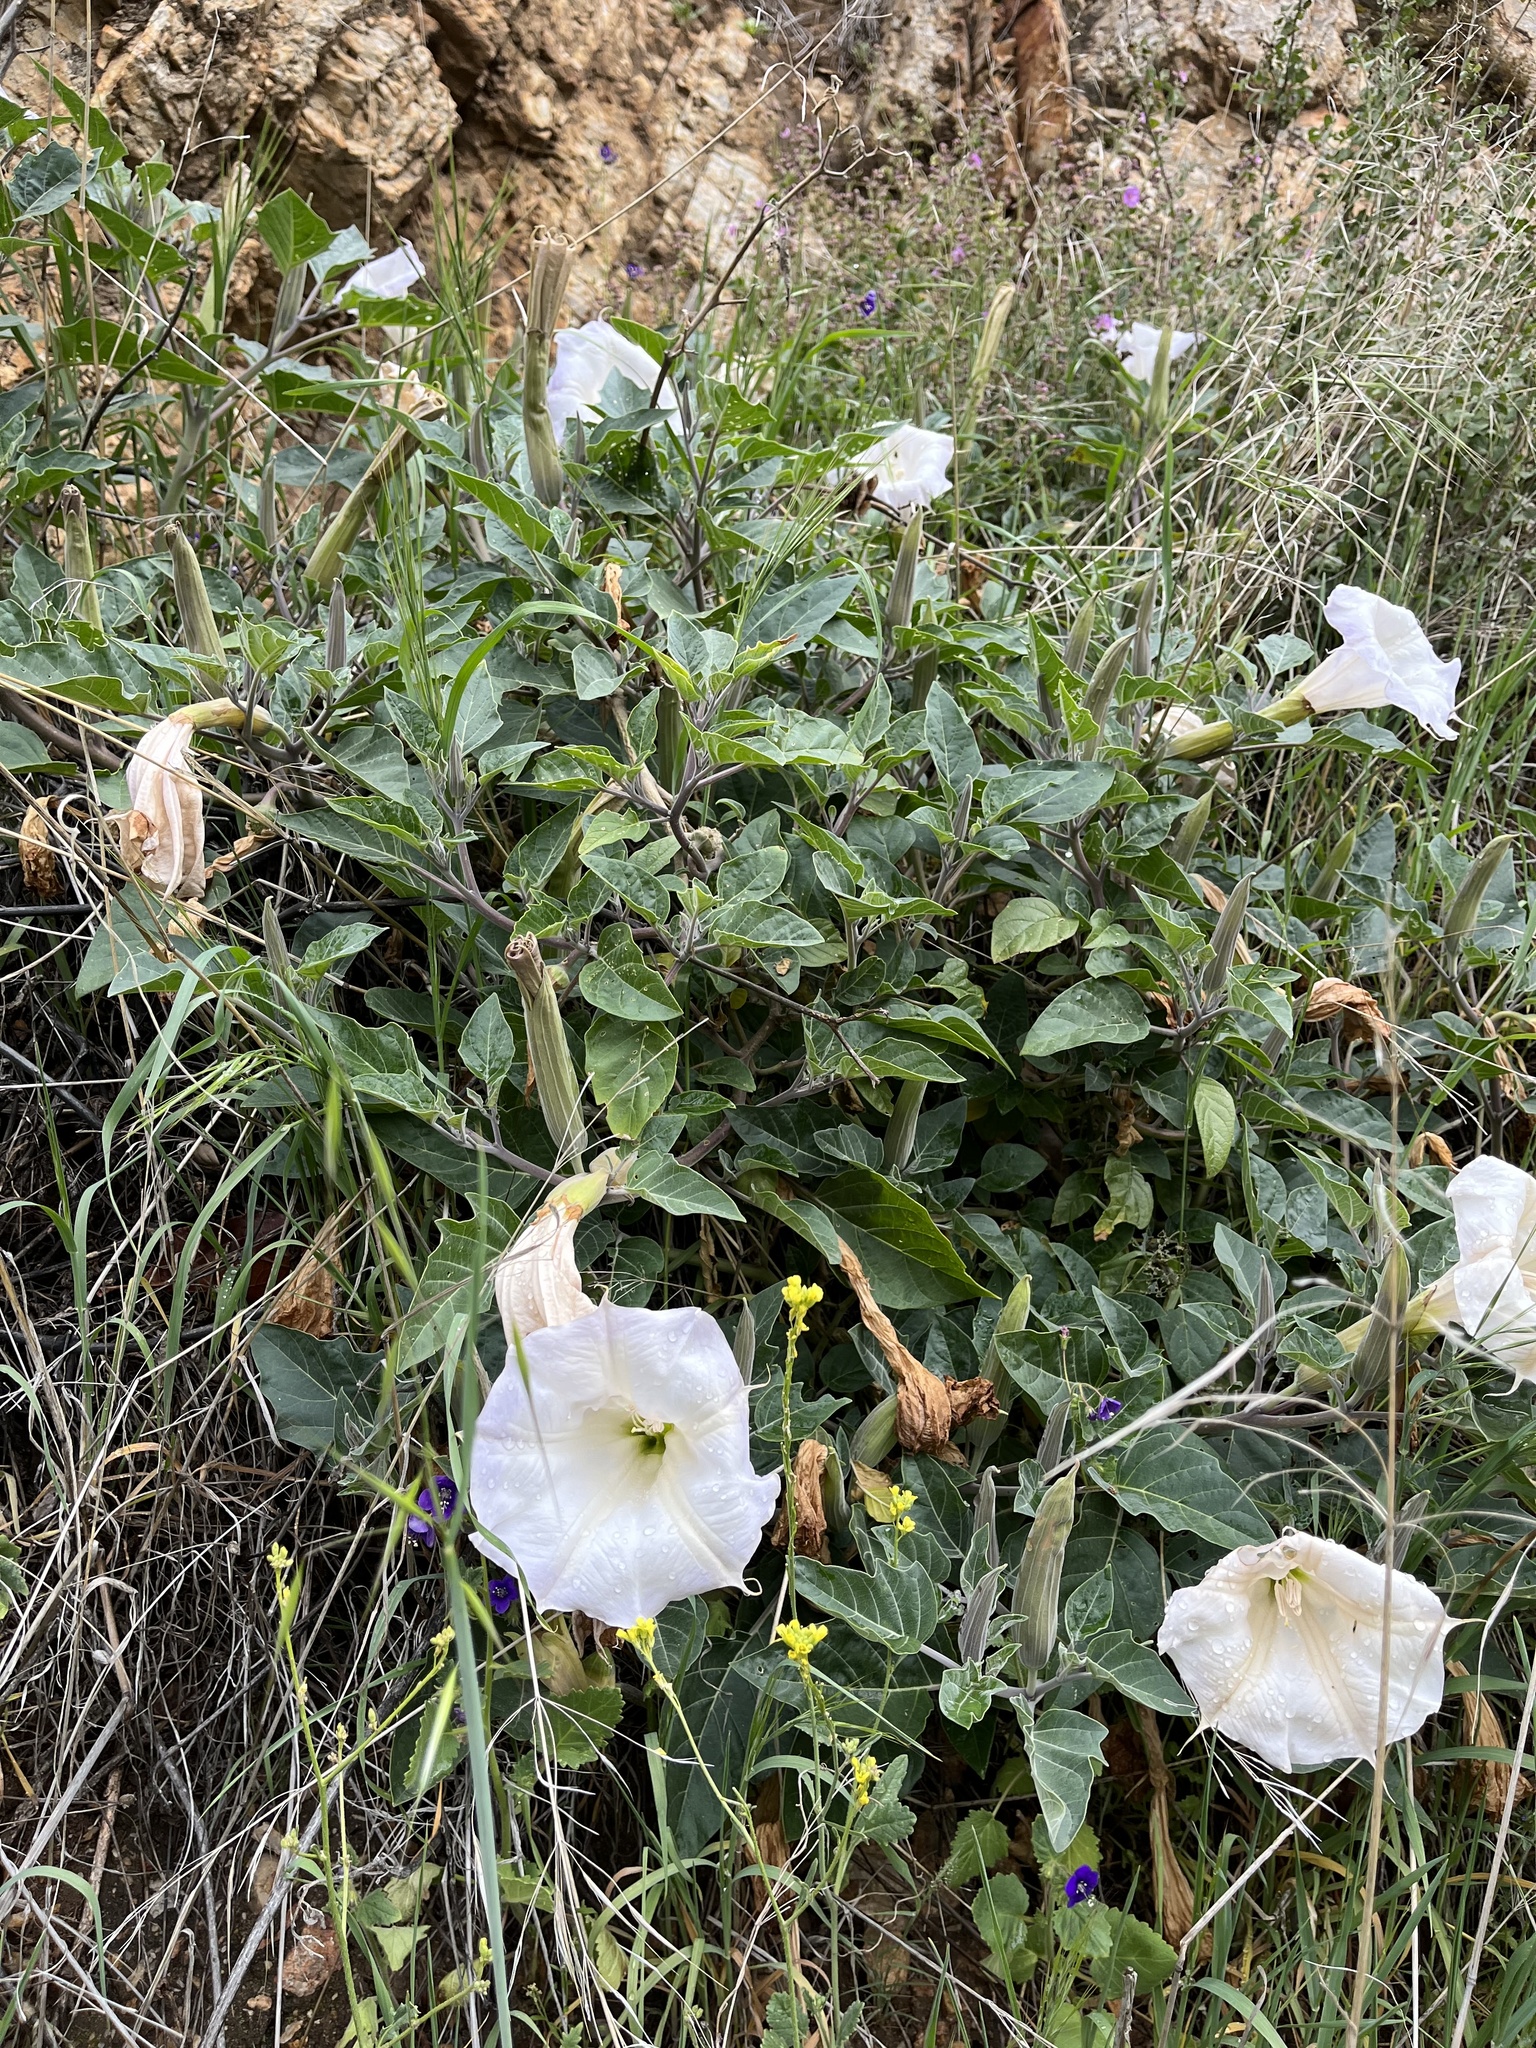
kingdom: Plantae
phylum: Tracheophyta
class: Magnoliopsida
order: Solanales
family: Solanaceae
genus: Datura
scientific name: Datura wrightii
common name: Sacred thorn-apple
